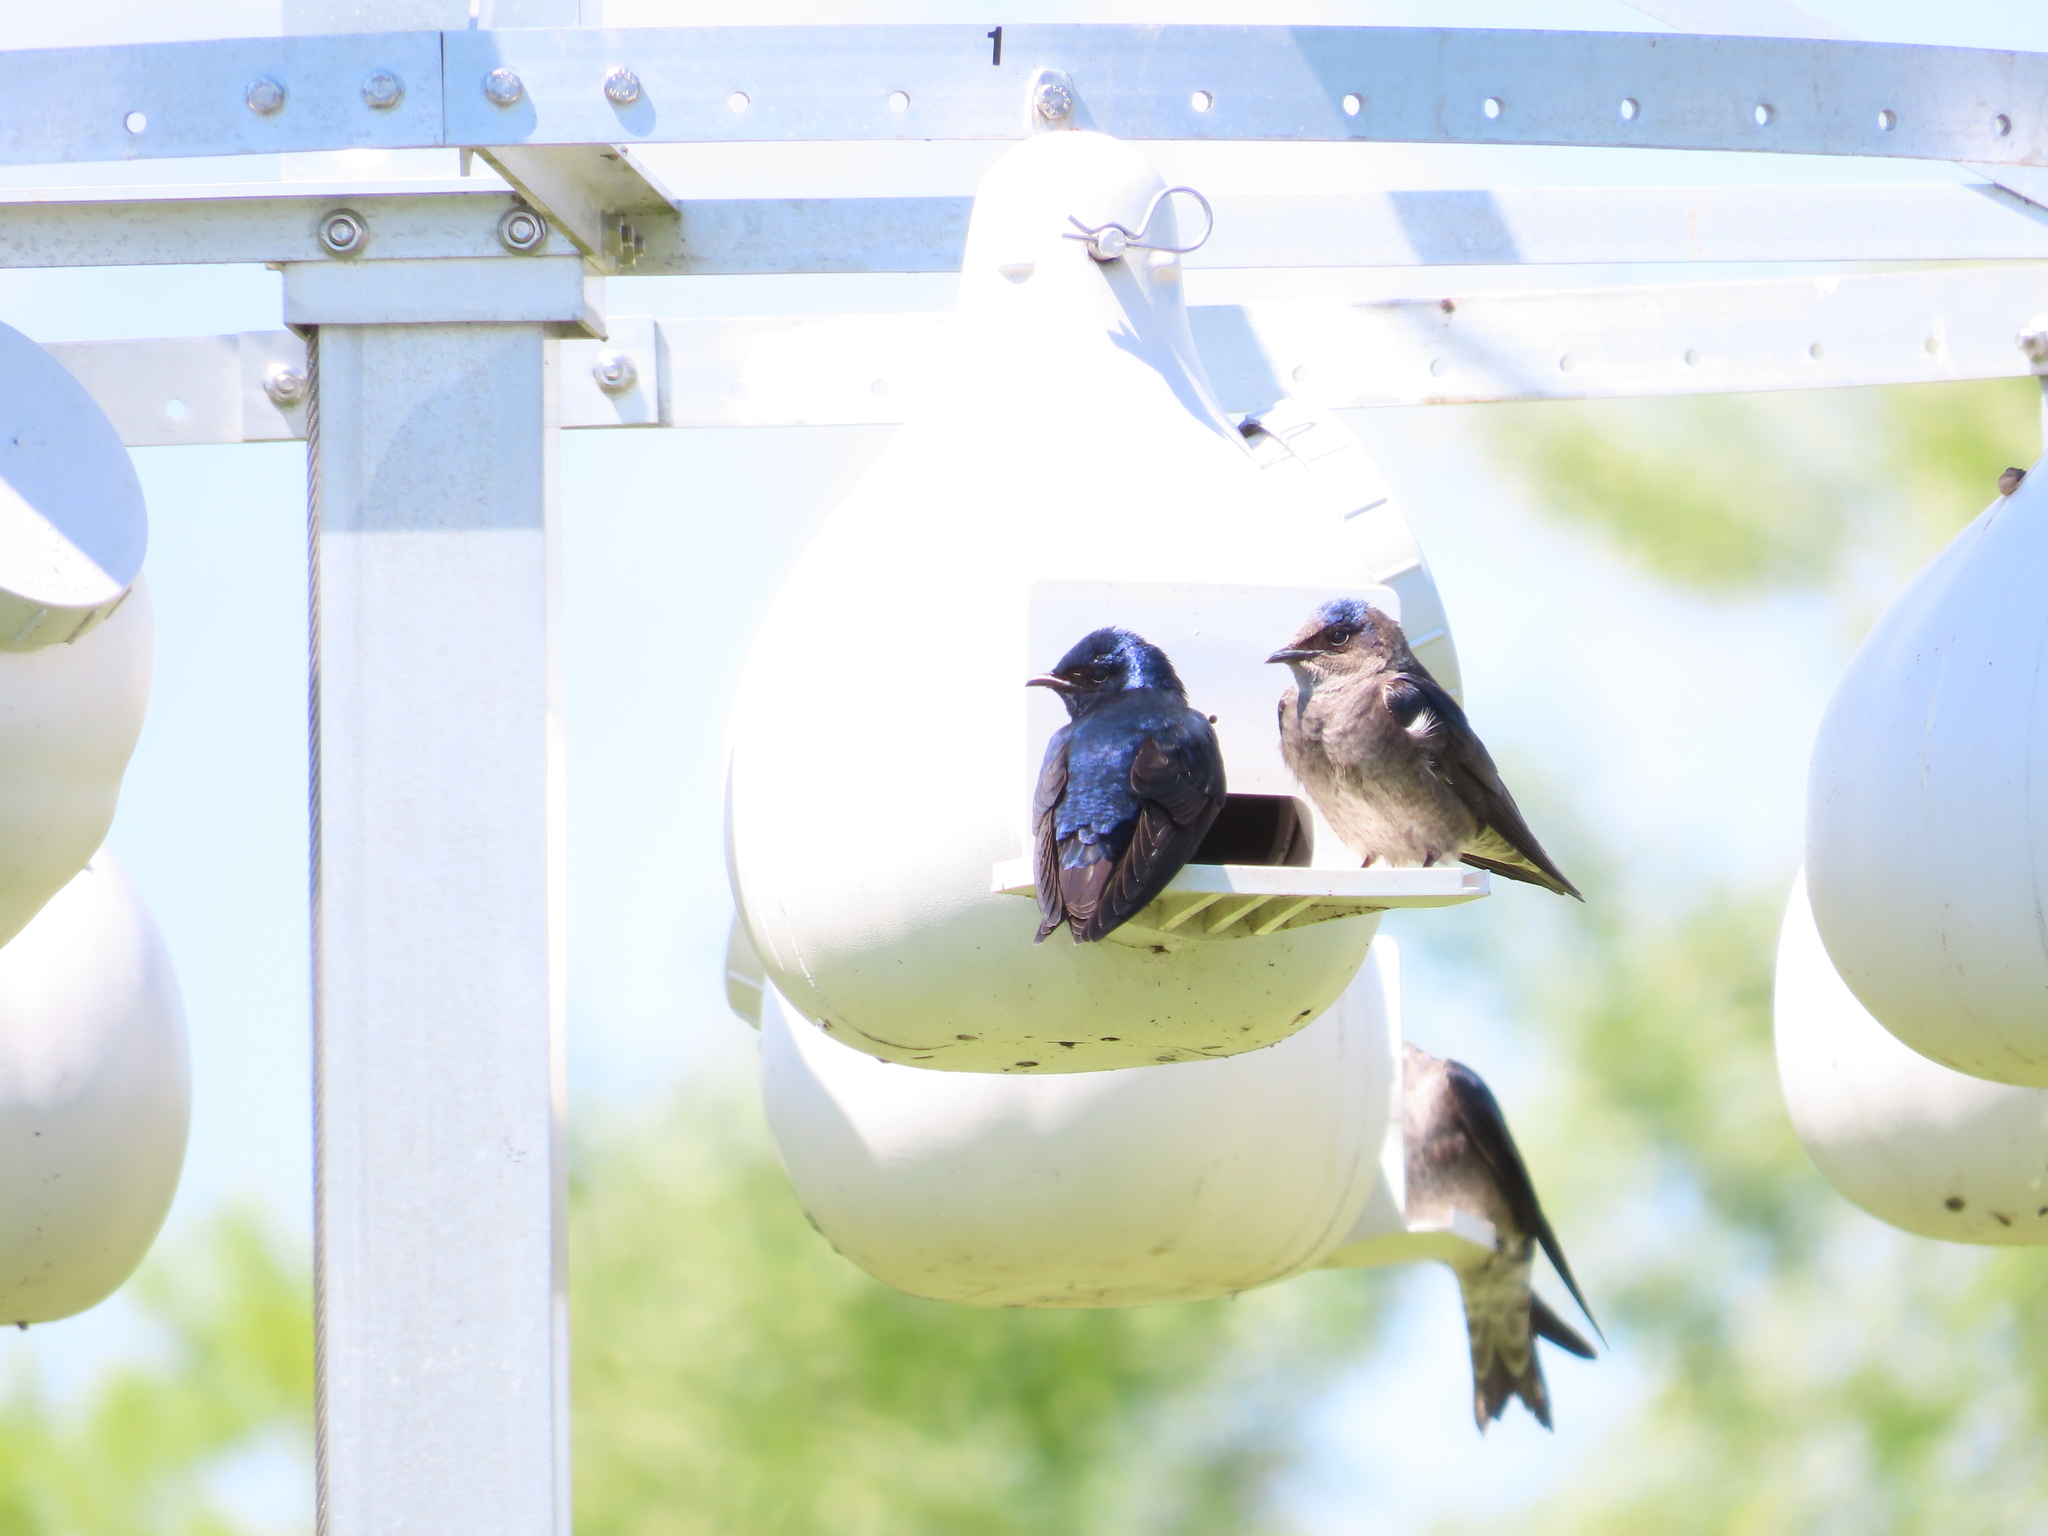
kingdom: Animalia
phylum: Chordata
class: Aves
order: Passeriformes
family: Hirundinidae
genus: Progne
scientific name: Progne subis
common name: Purple martin
